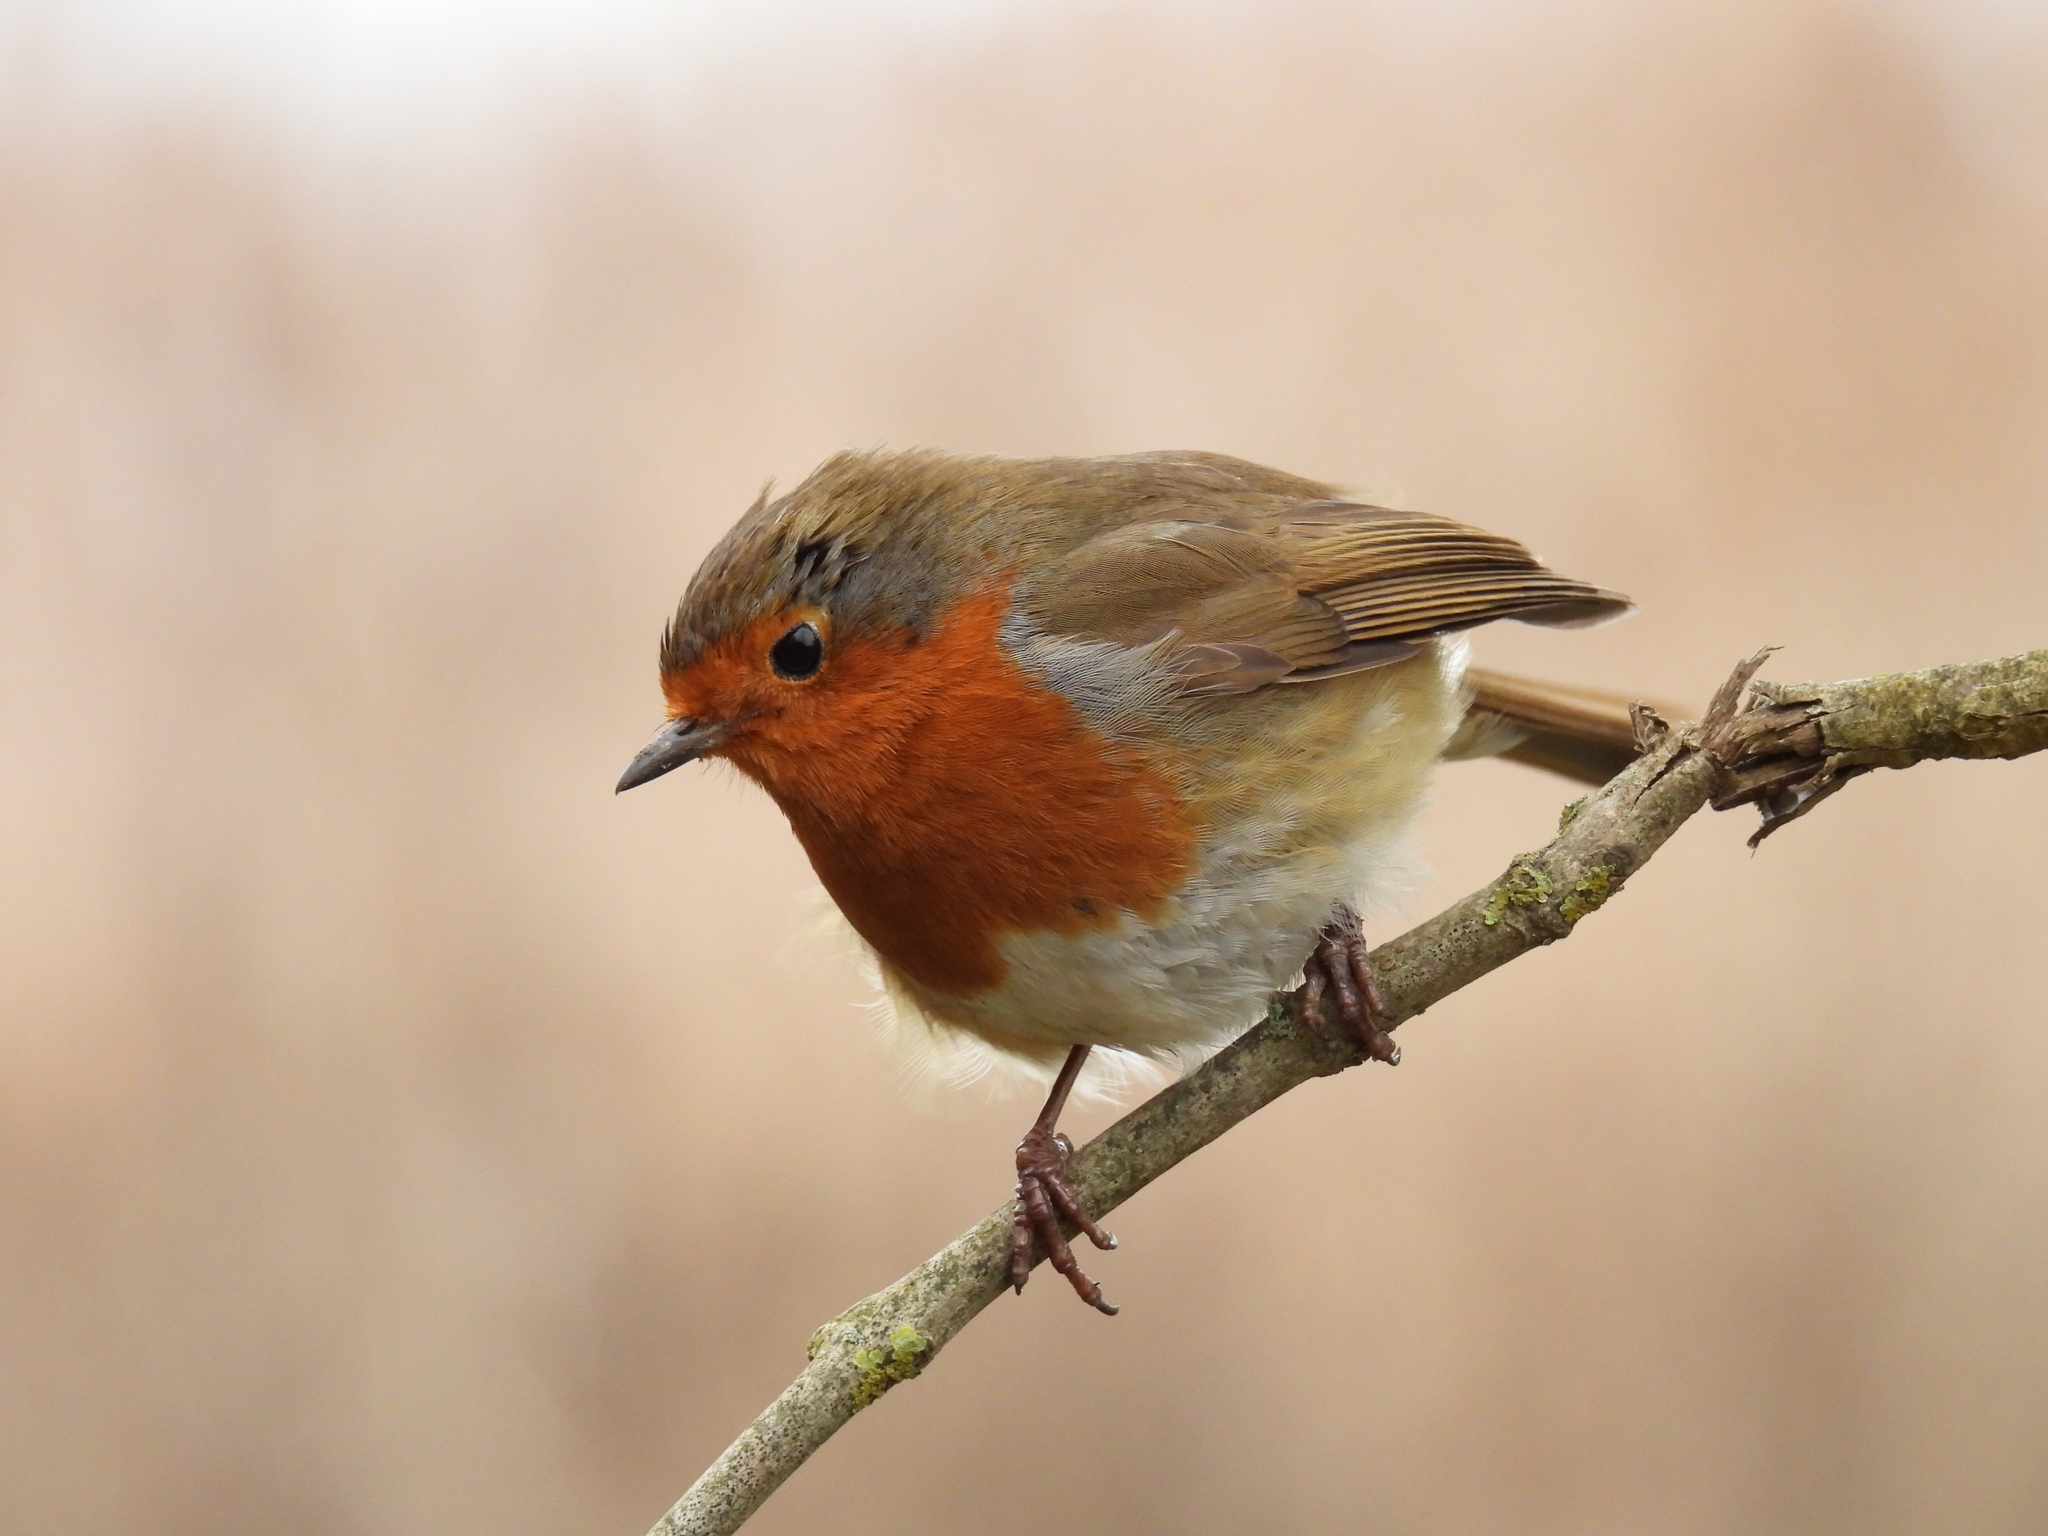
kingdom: Animalia
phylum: Chordata
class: Aves
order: Passeriformes
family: Muscicapidae
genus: Erithacus
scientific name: Erithacus rubecula
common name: European robin
